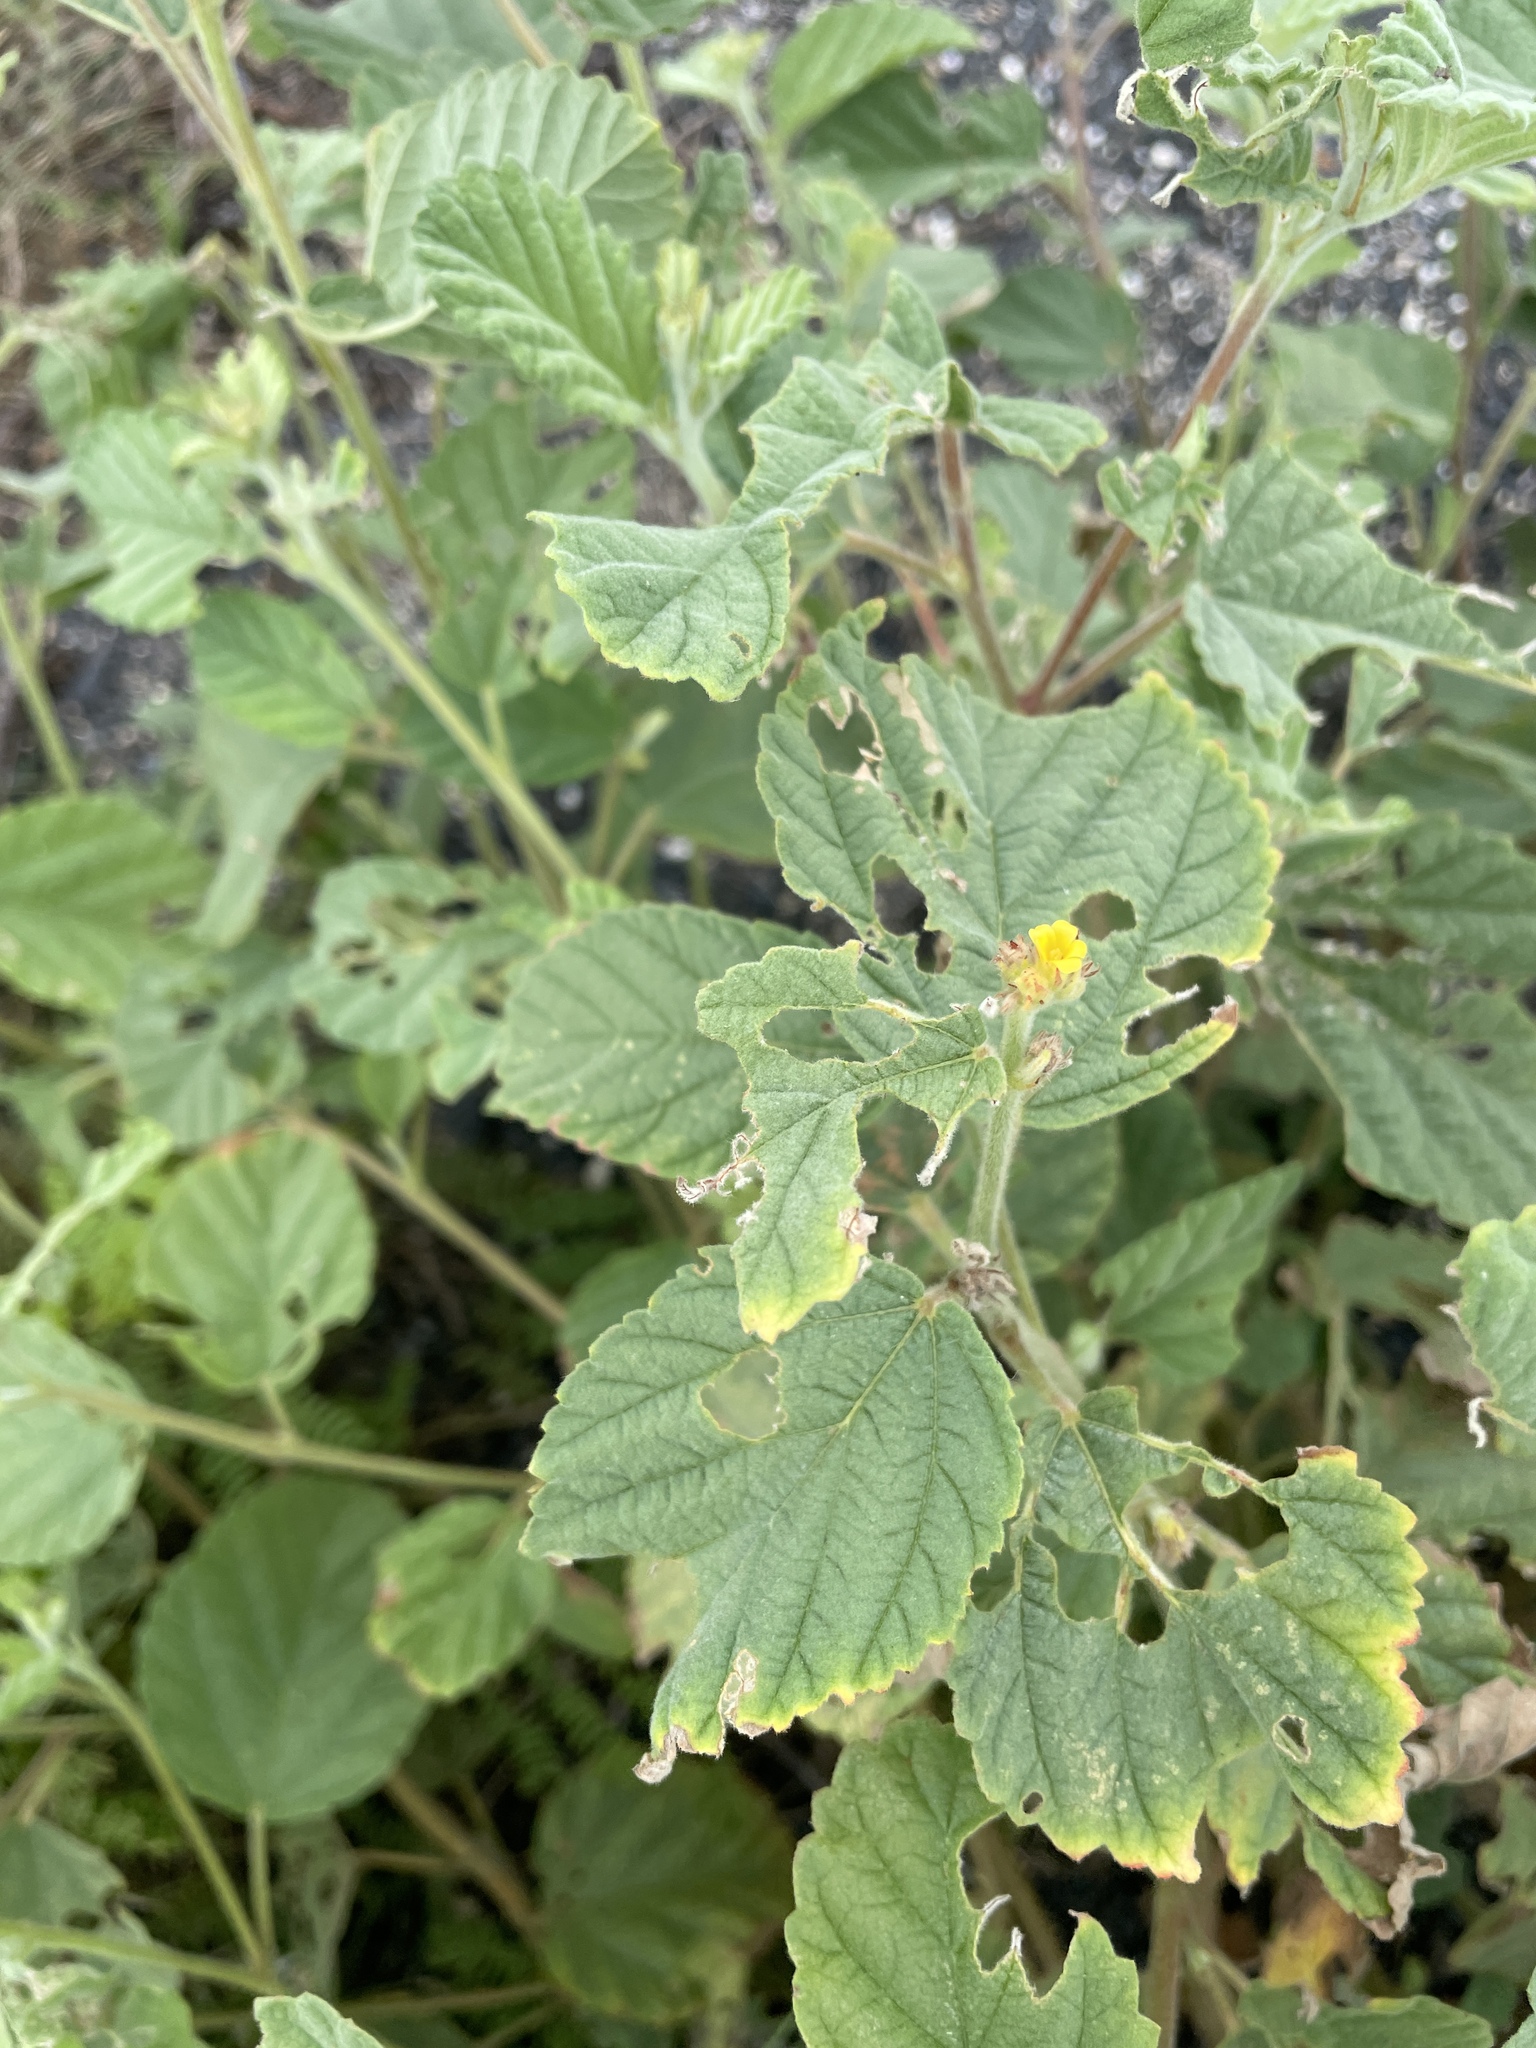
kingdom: Plantae
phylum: Tracheophyta
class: Magnoliopsida
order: Malvales
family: Malvaceae
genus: Waltheria
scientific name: Waltheria indica
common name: Leather-coat
